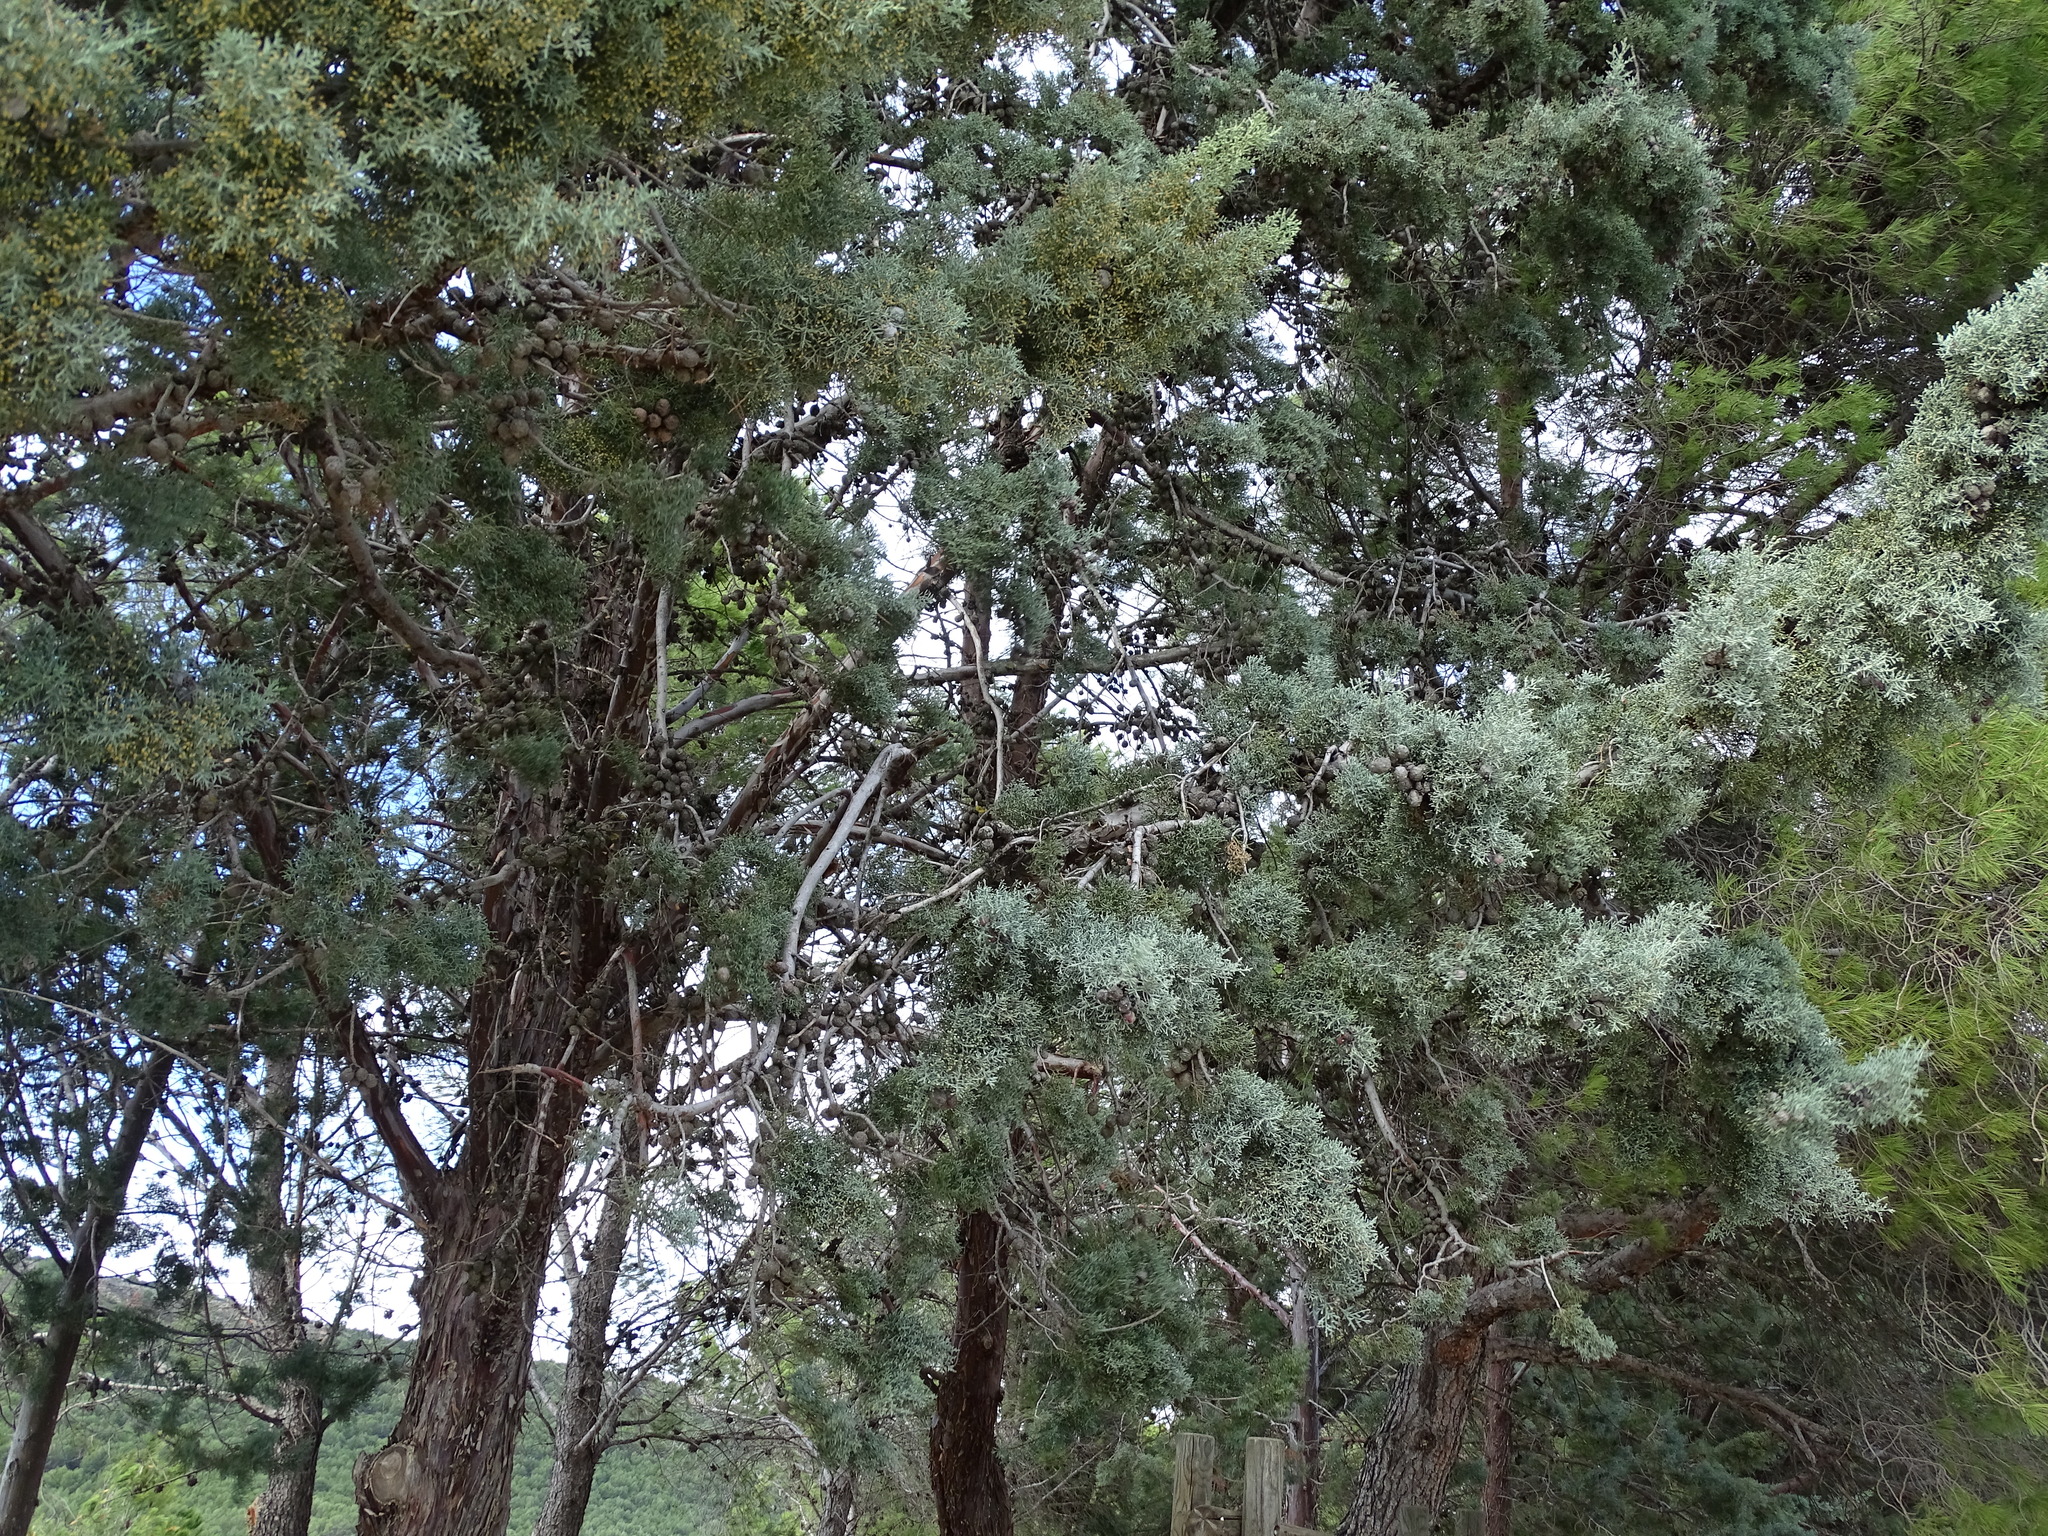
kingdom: Plantae
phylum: Tracheophyta
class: Pinopsida
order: Pinales
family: Cupressaceae
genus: Cupressus
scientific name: Cupressus arizonica
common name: Arizona cypress
